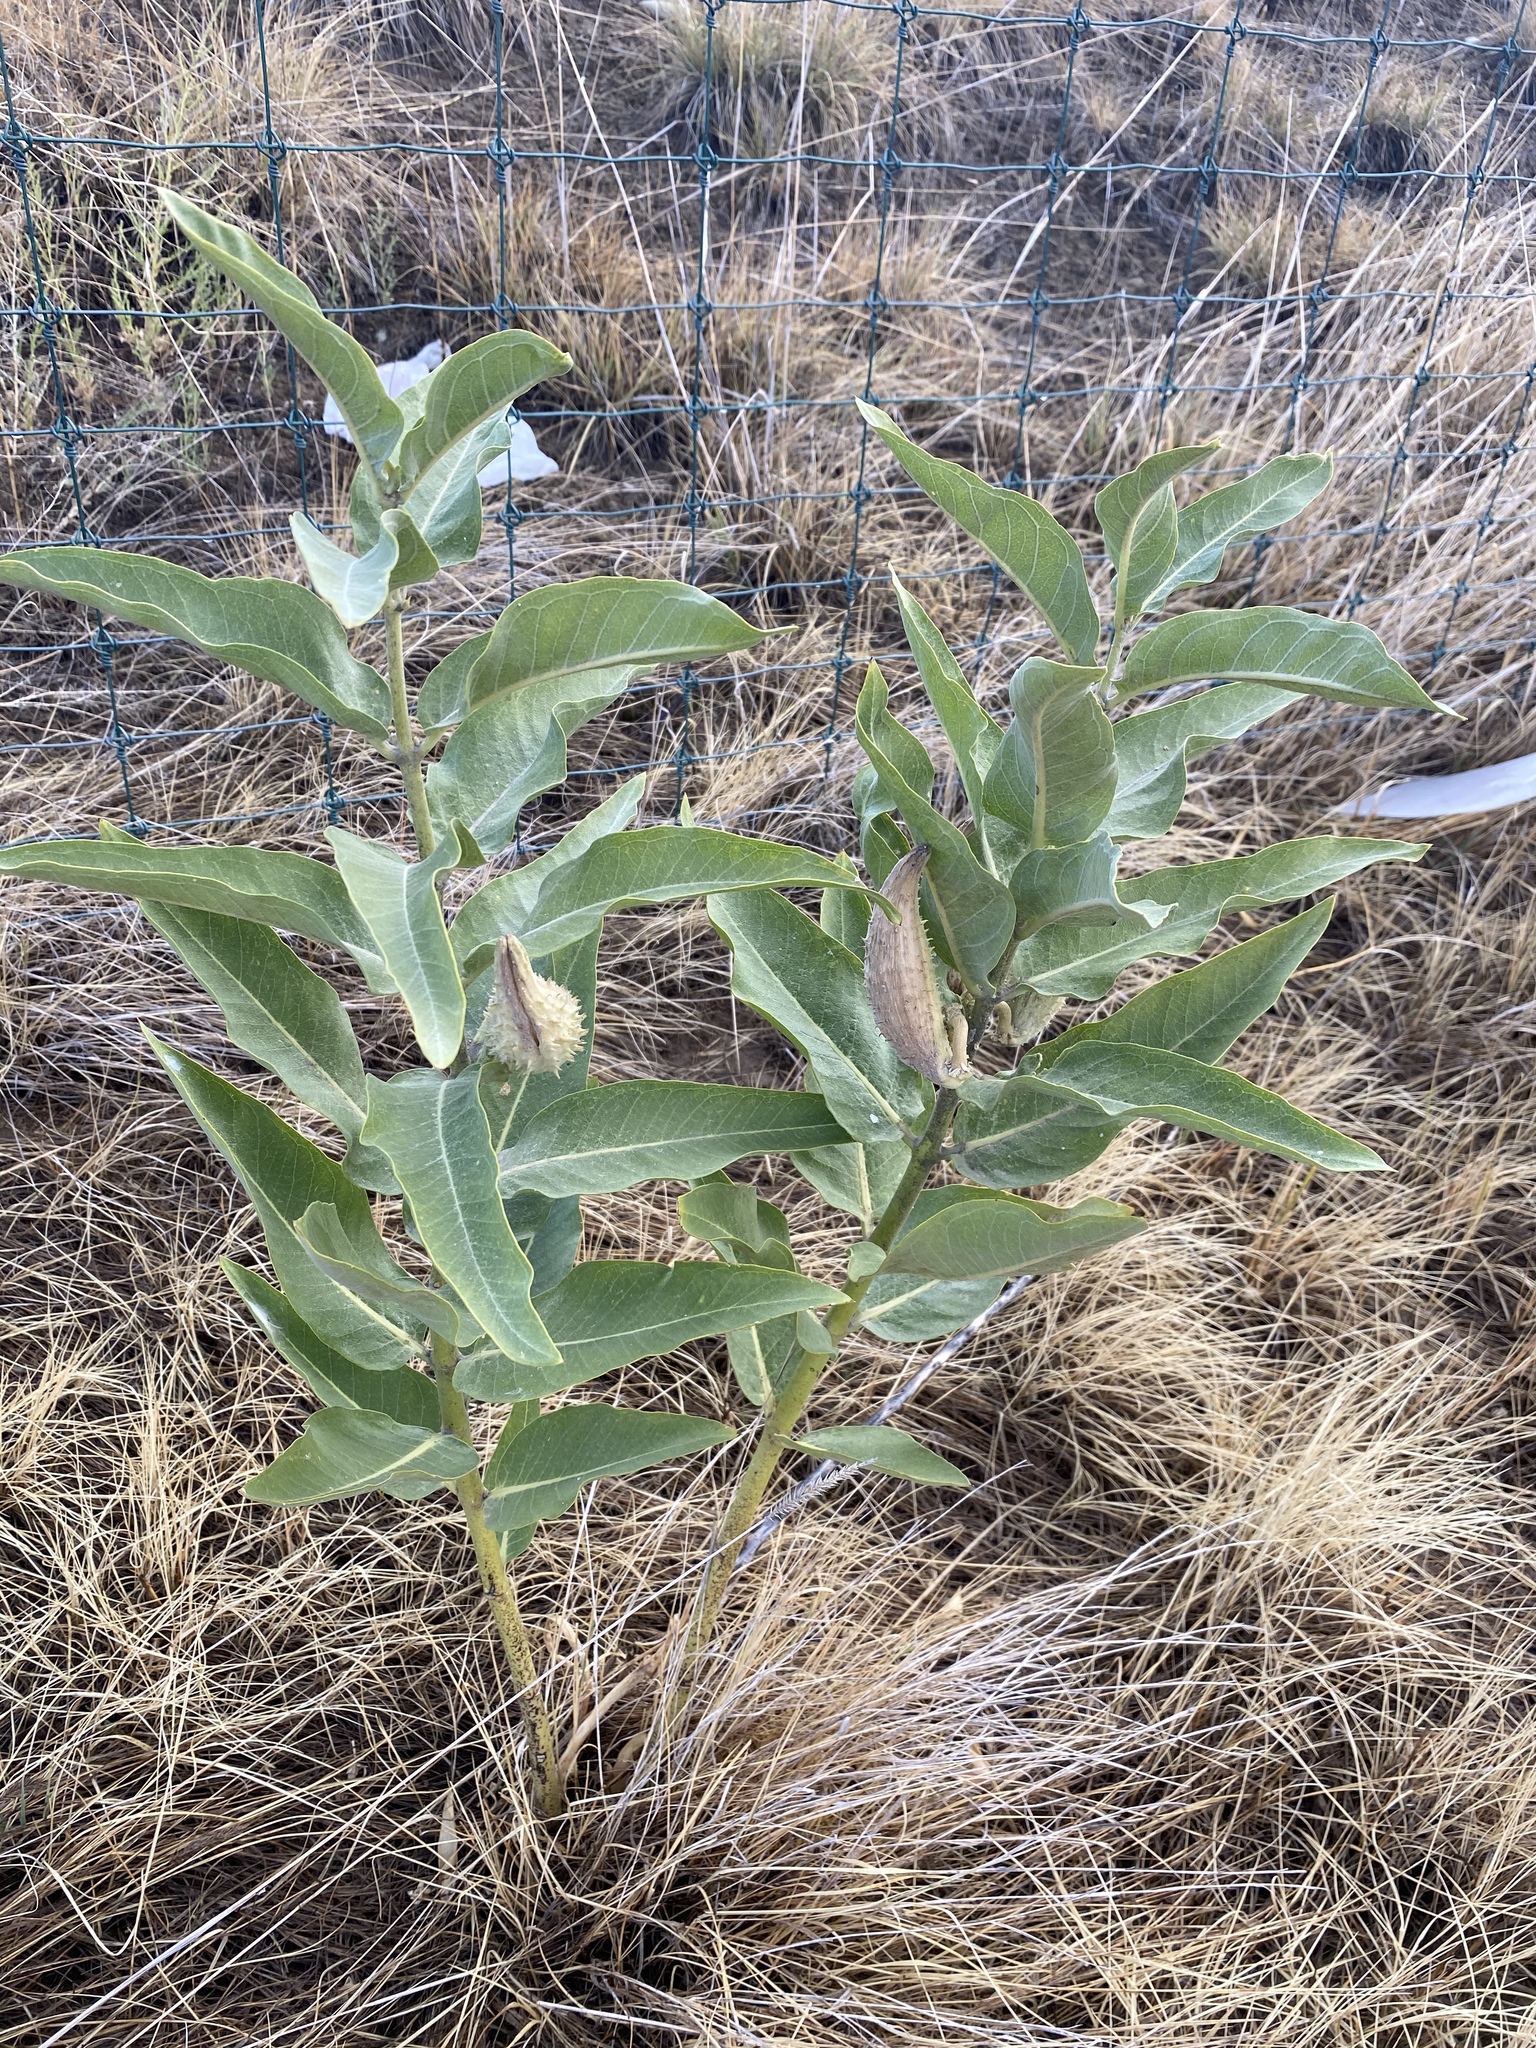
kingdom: Plantae
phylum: Tracheophyta
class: Magnoliopsida
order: Gentianales
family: Apocynaceae
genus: Asclepias
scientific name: Asclepias speciosa
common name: Showy milkweed
